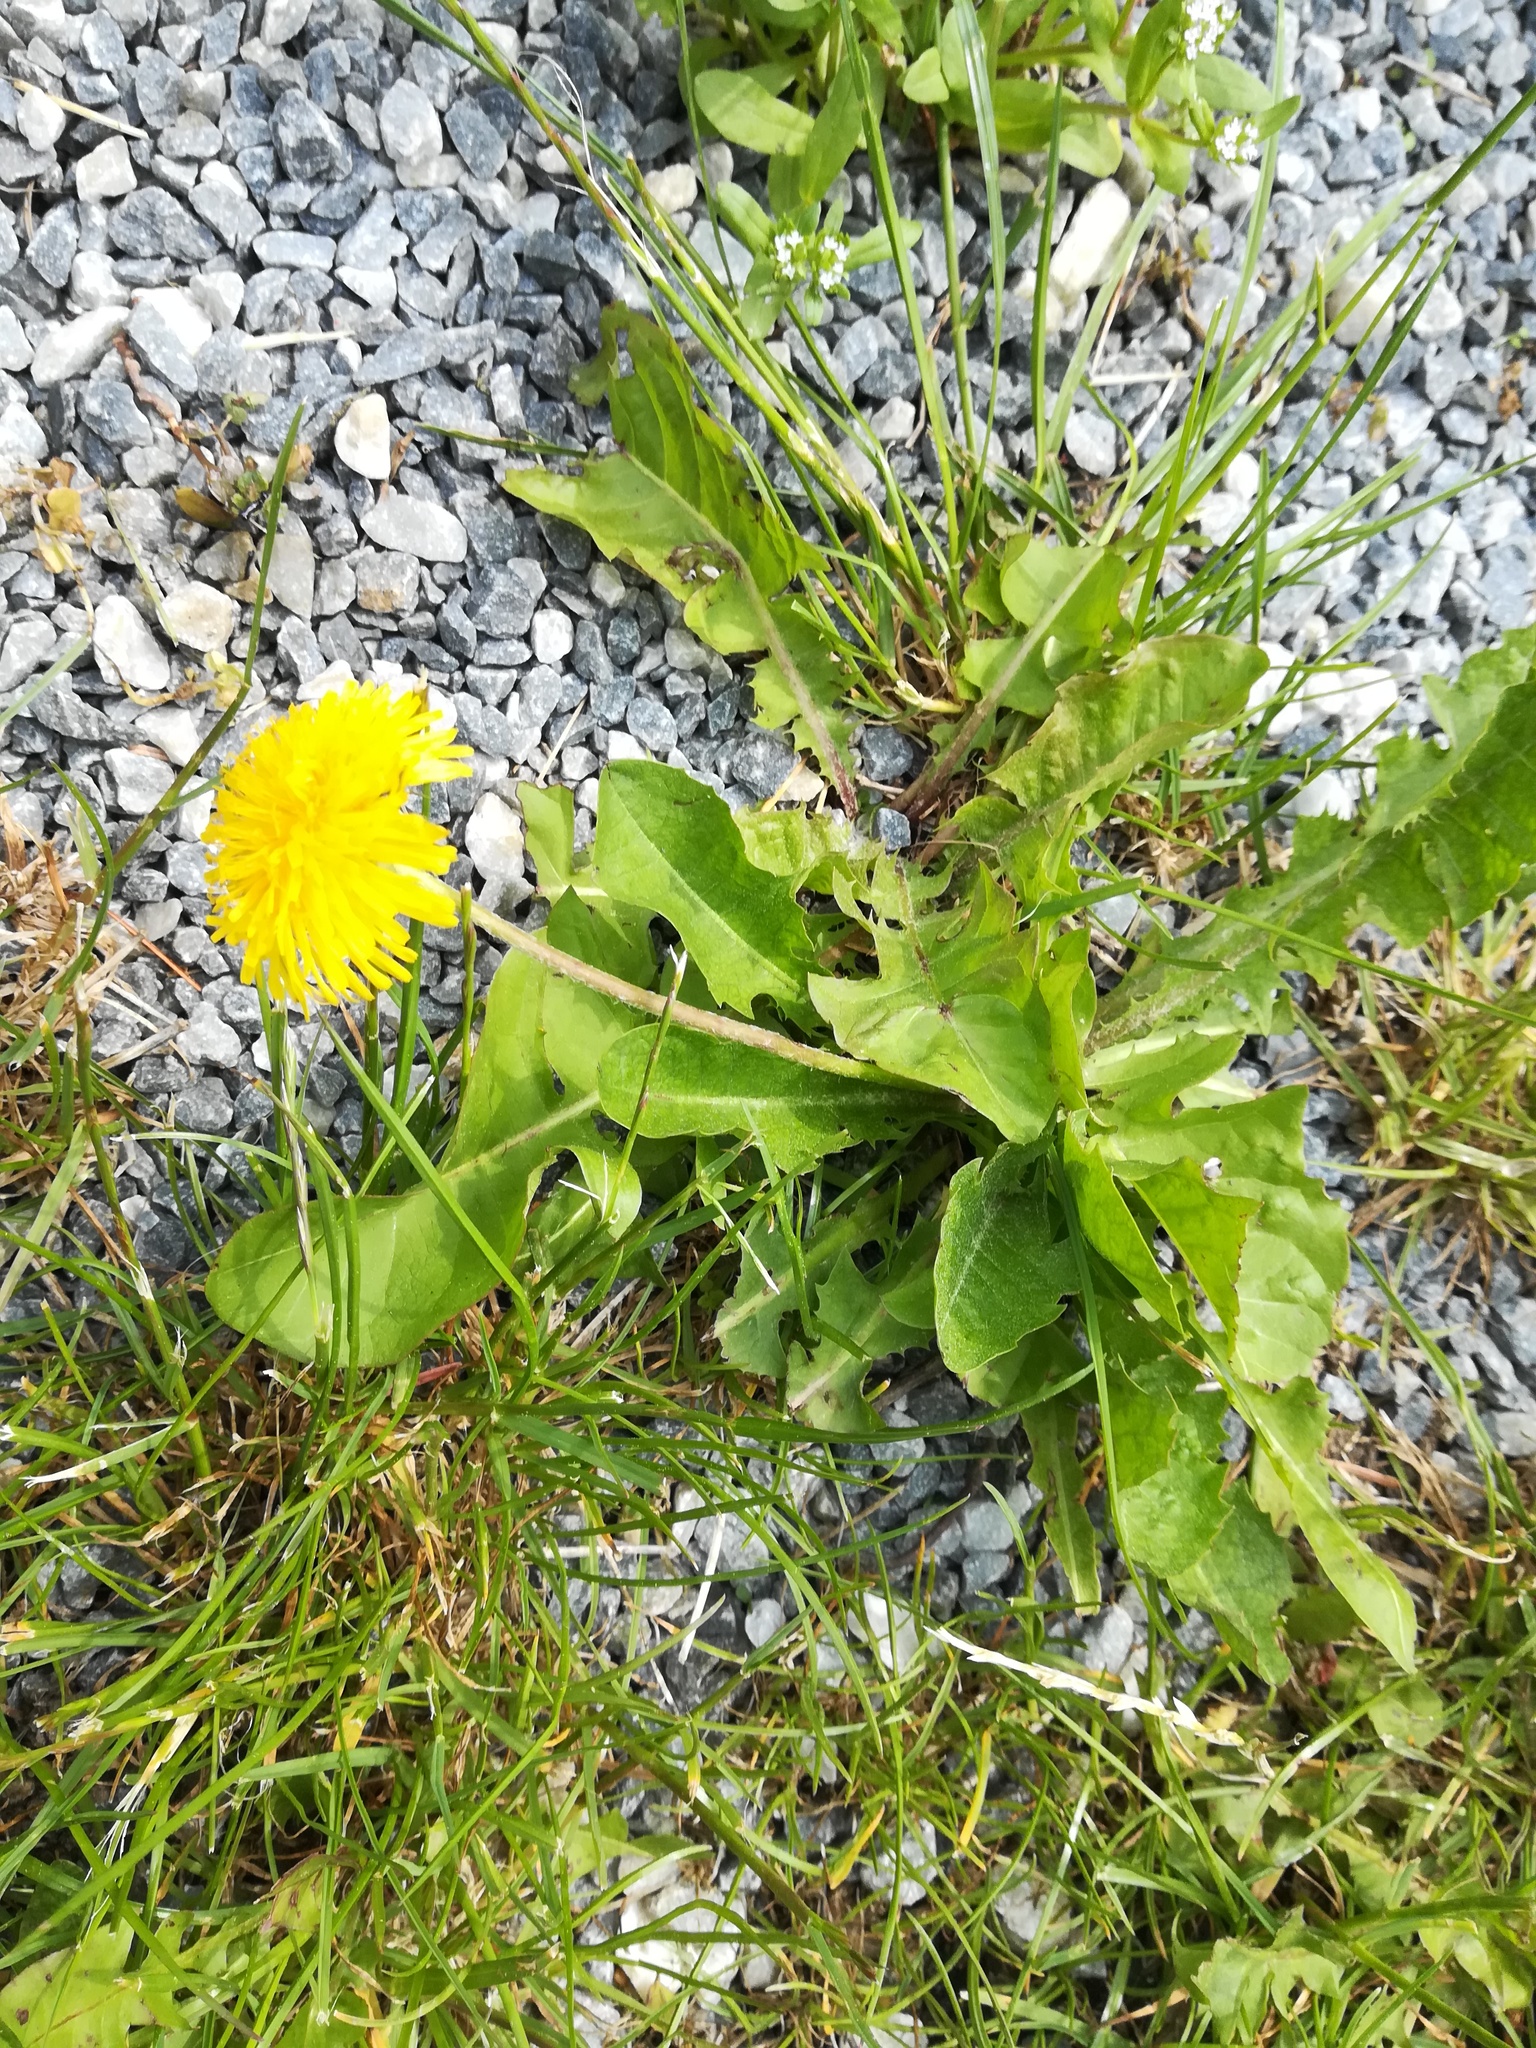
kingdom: Plantae
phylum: Tracheophyta
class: Magnoliopsida
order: Asterales
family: Asteraceae
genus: Taraxacum
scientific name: Taraxacum officinale
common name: Common dandelion
